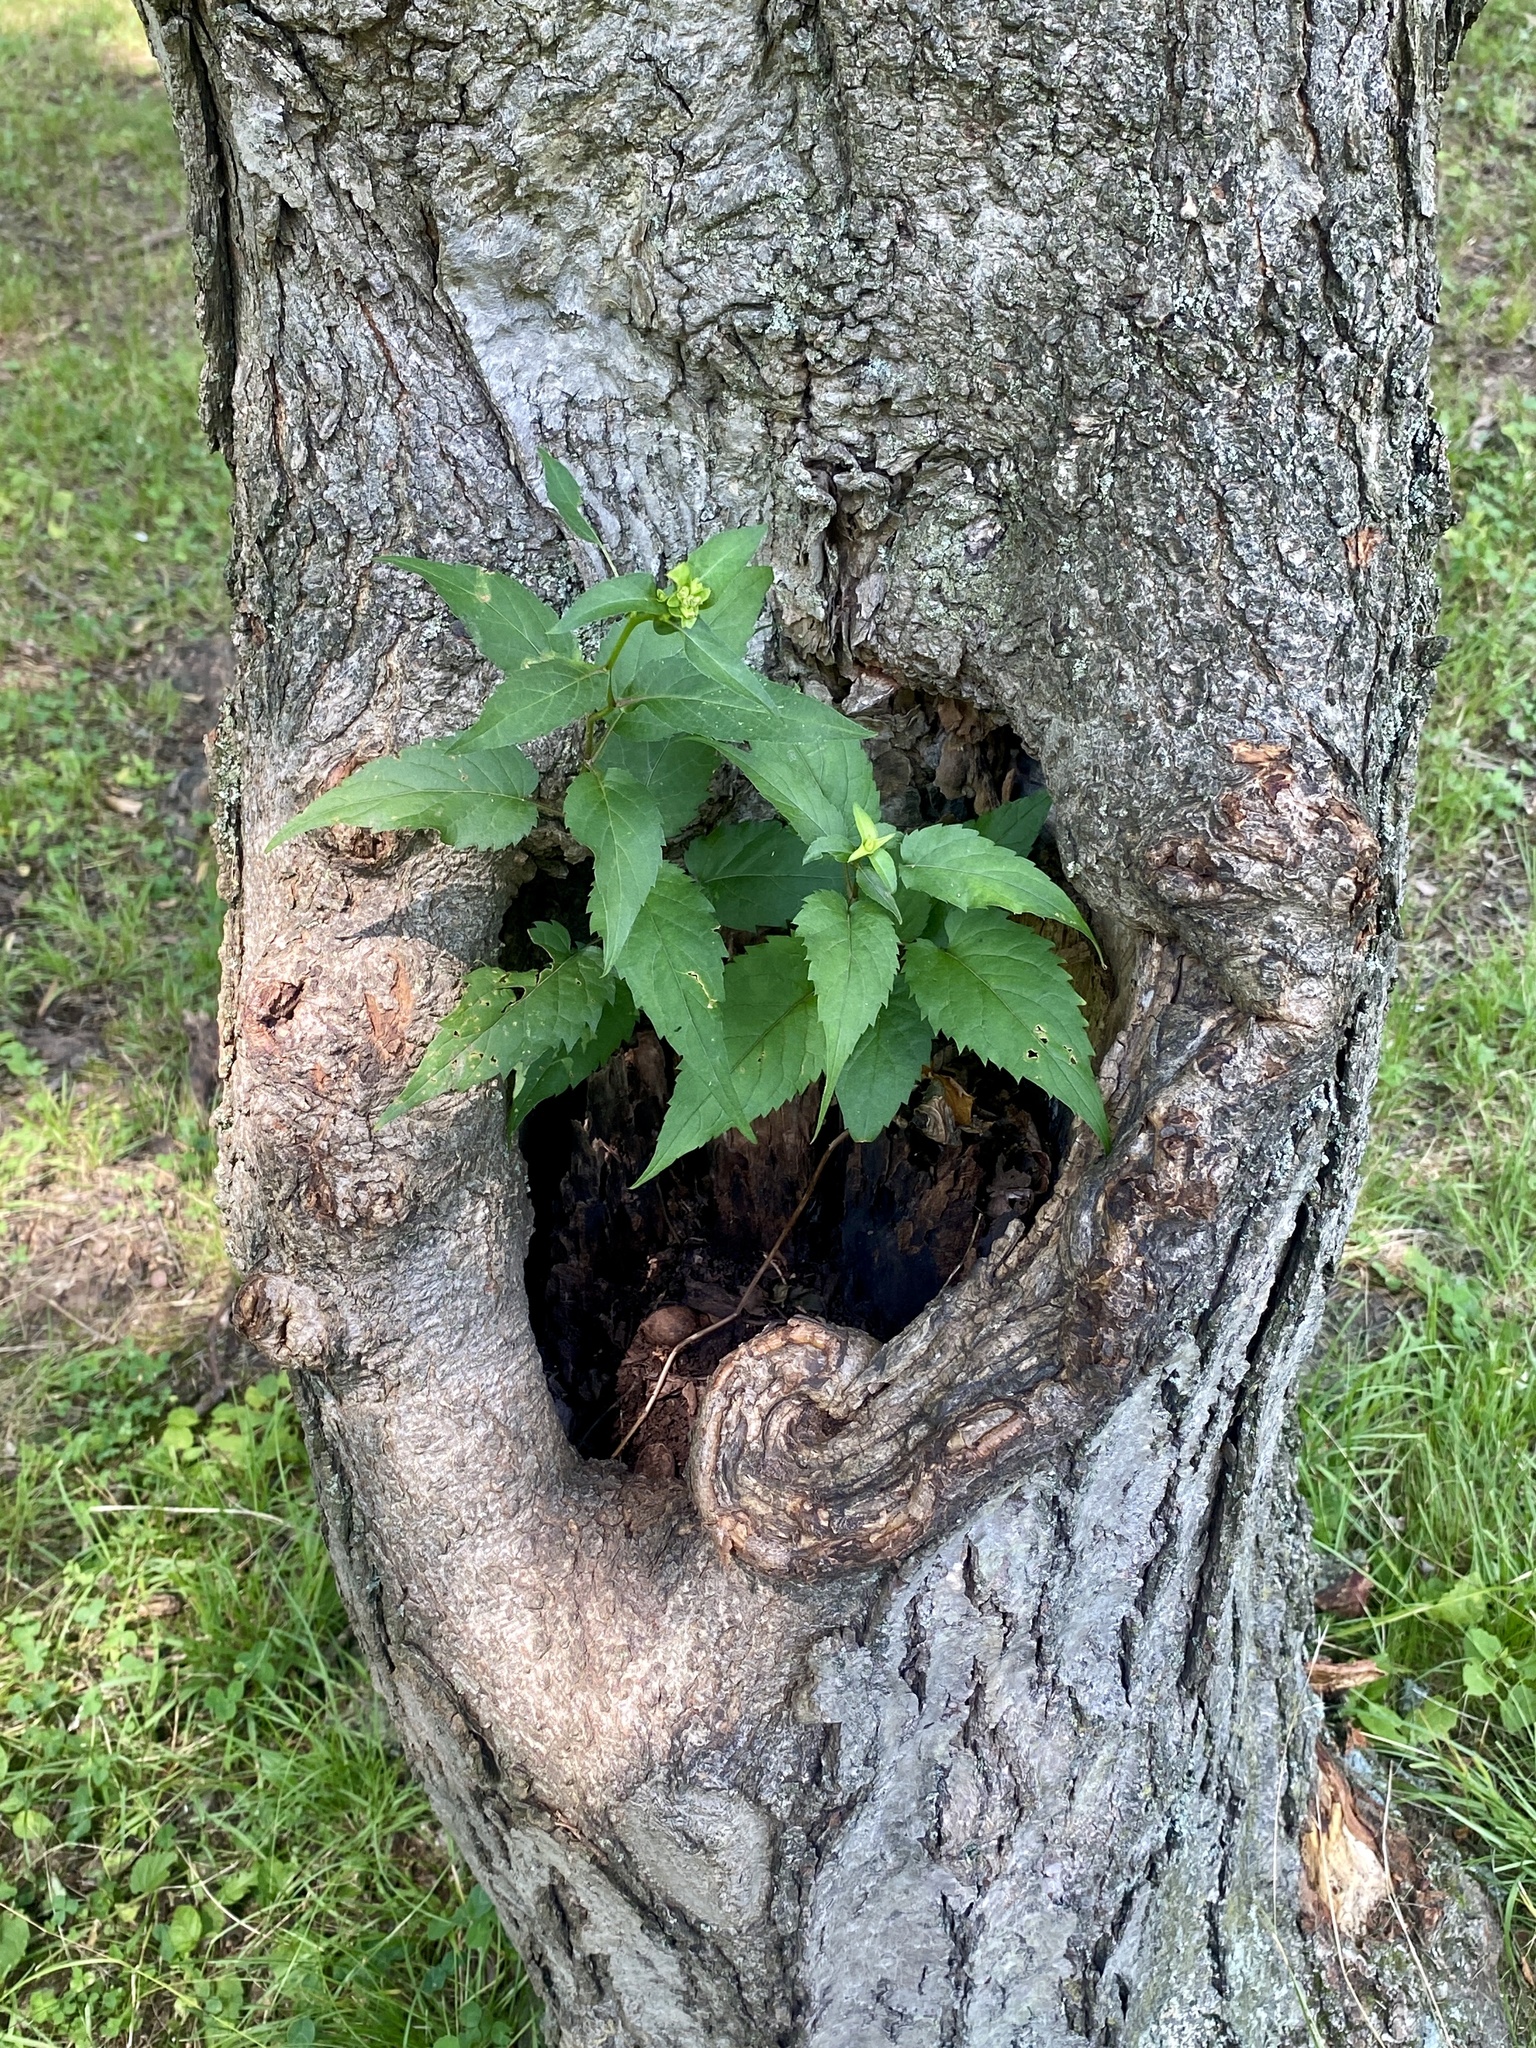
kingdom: Plantae
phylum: Tracheophyta
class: Magnoliopsida
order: Asterales
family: Asteraceae
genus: Eurybia
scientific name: Eurybia divaricata
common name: White wood aster
